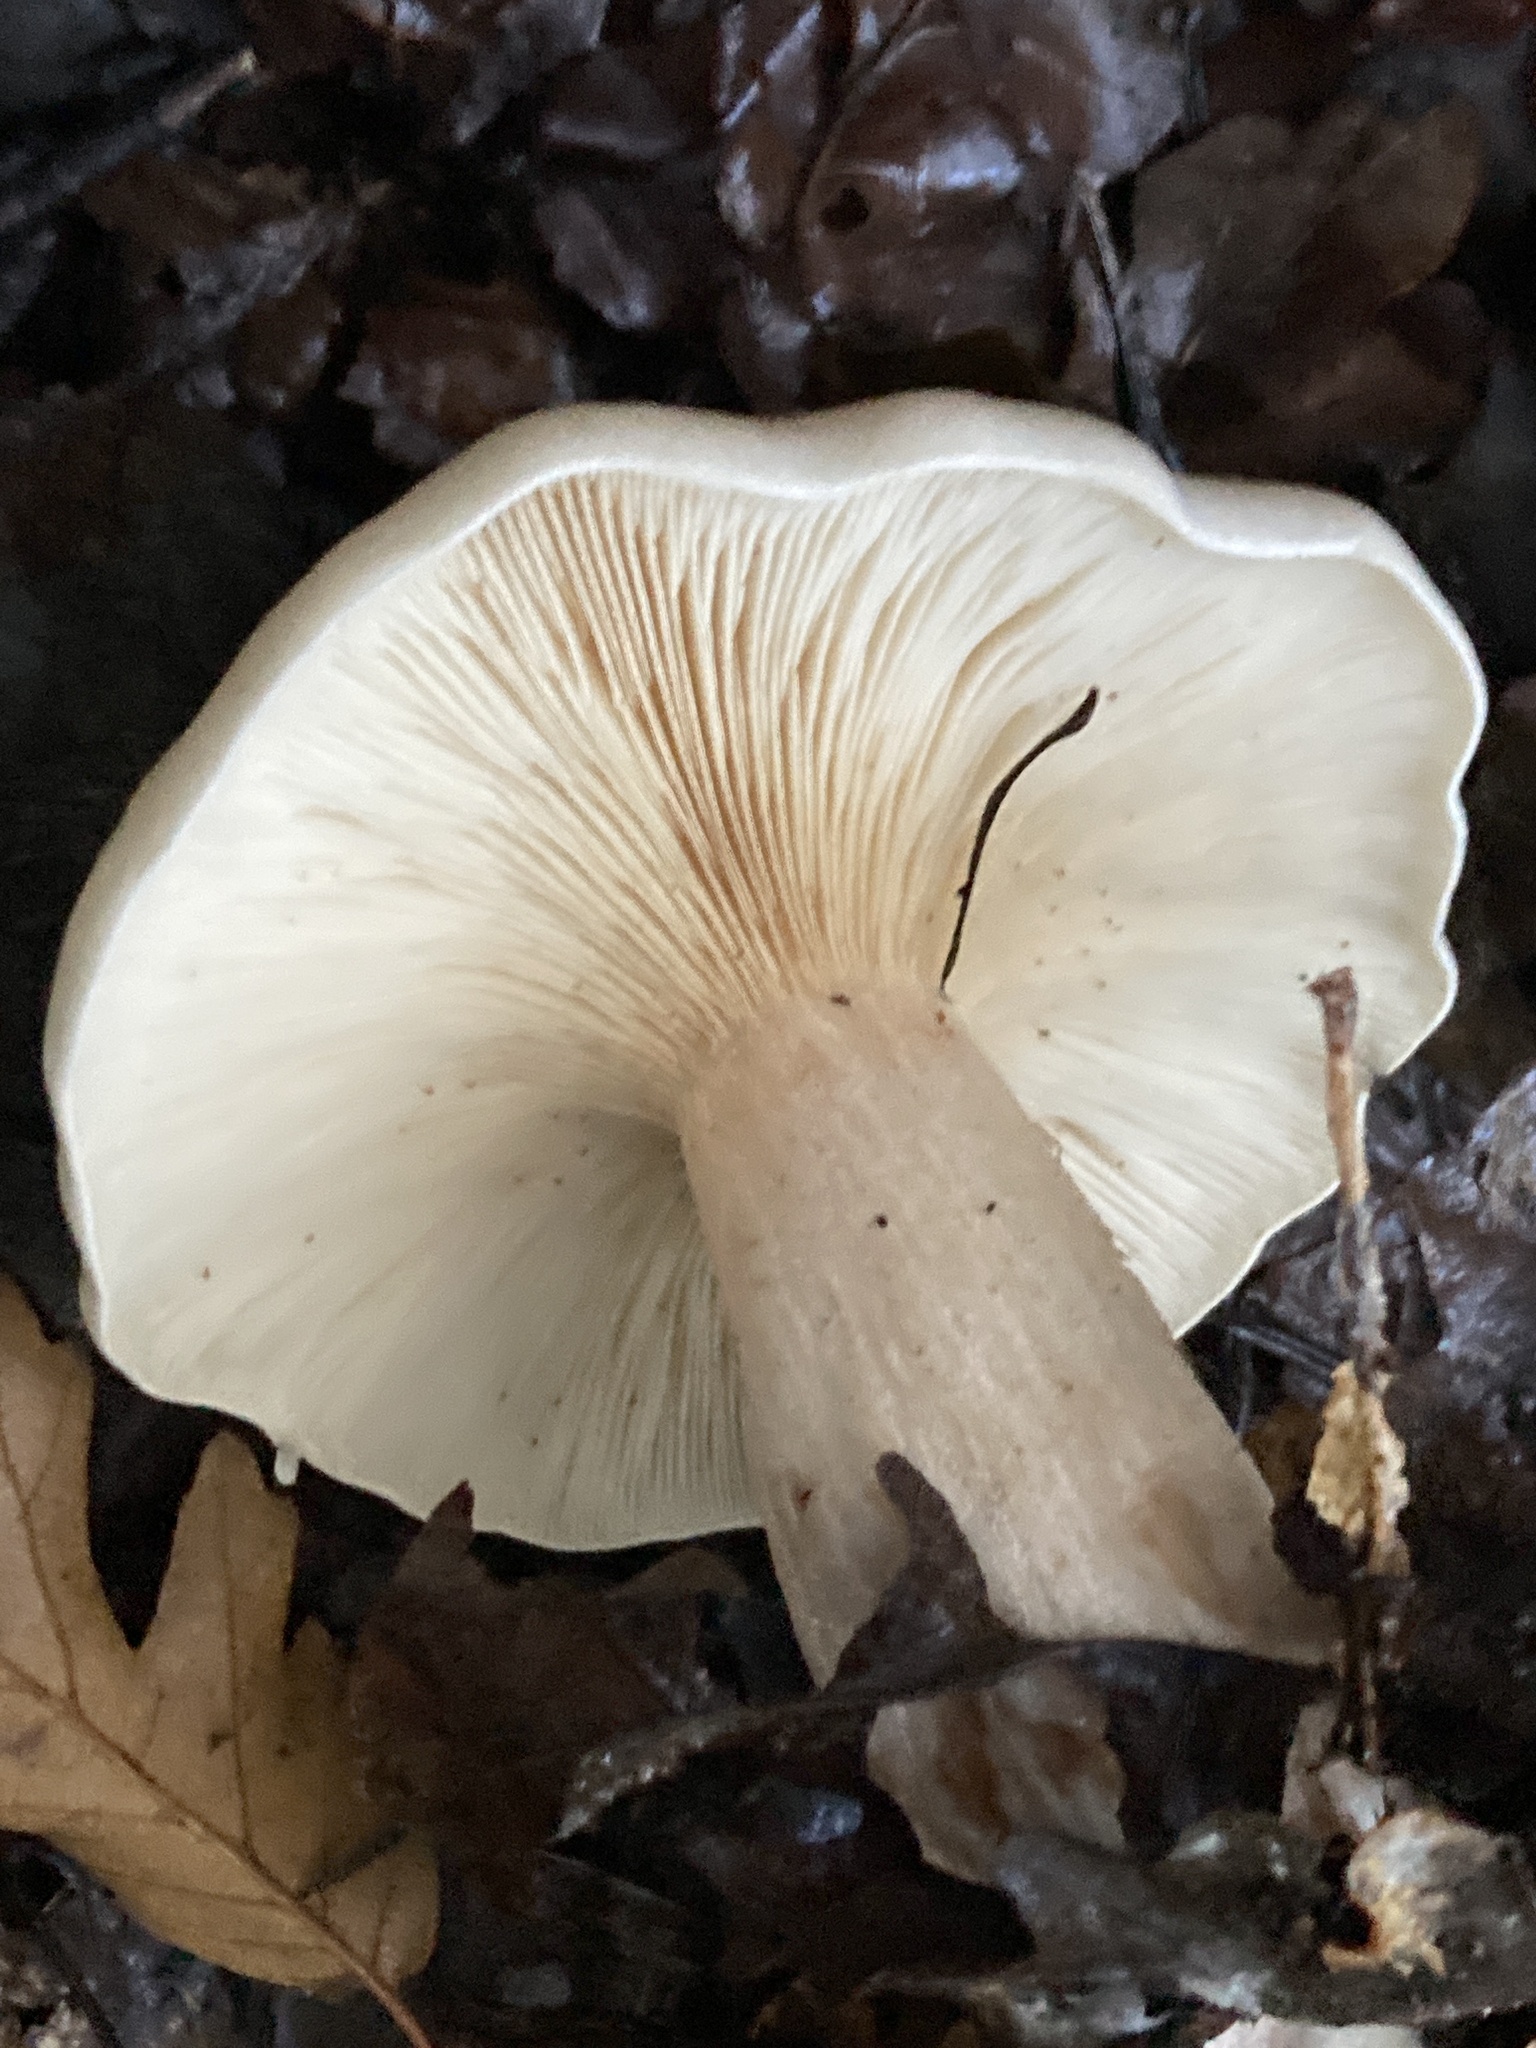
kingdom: Fungi
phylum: Basidiomycota
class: Agaricomycetes
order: Agaricales
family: Tricholomataceae
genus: Clitocybe
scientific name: Clitocybe nebularis
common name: Clouded agaric
